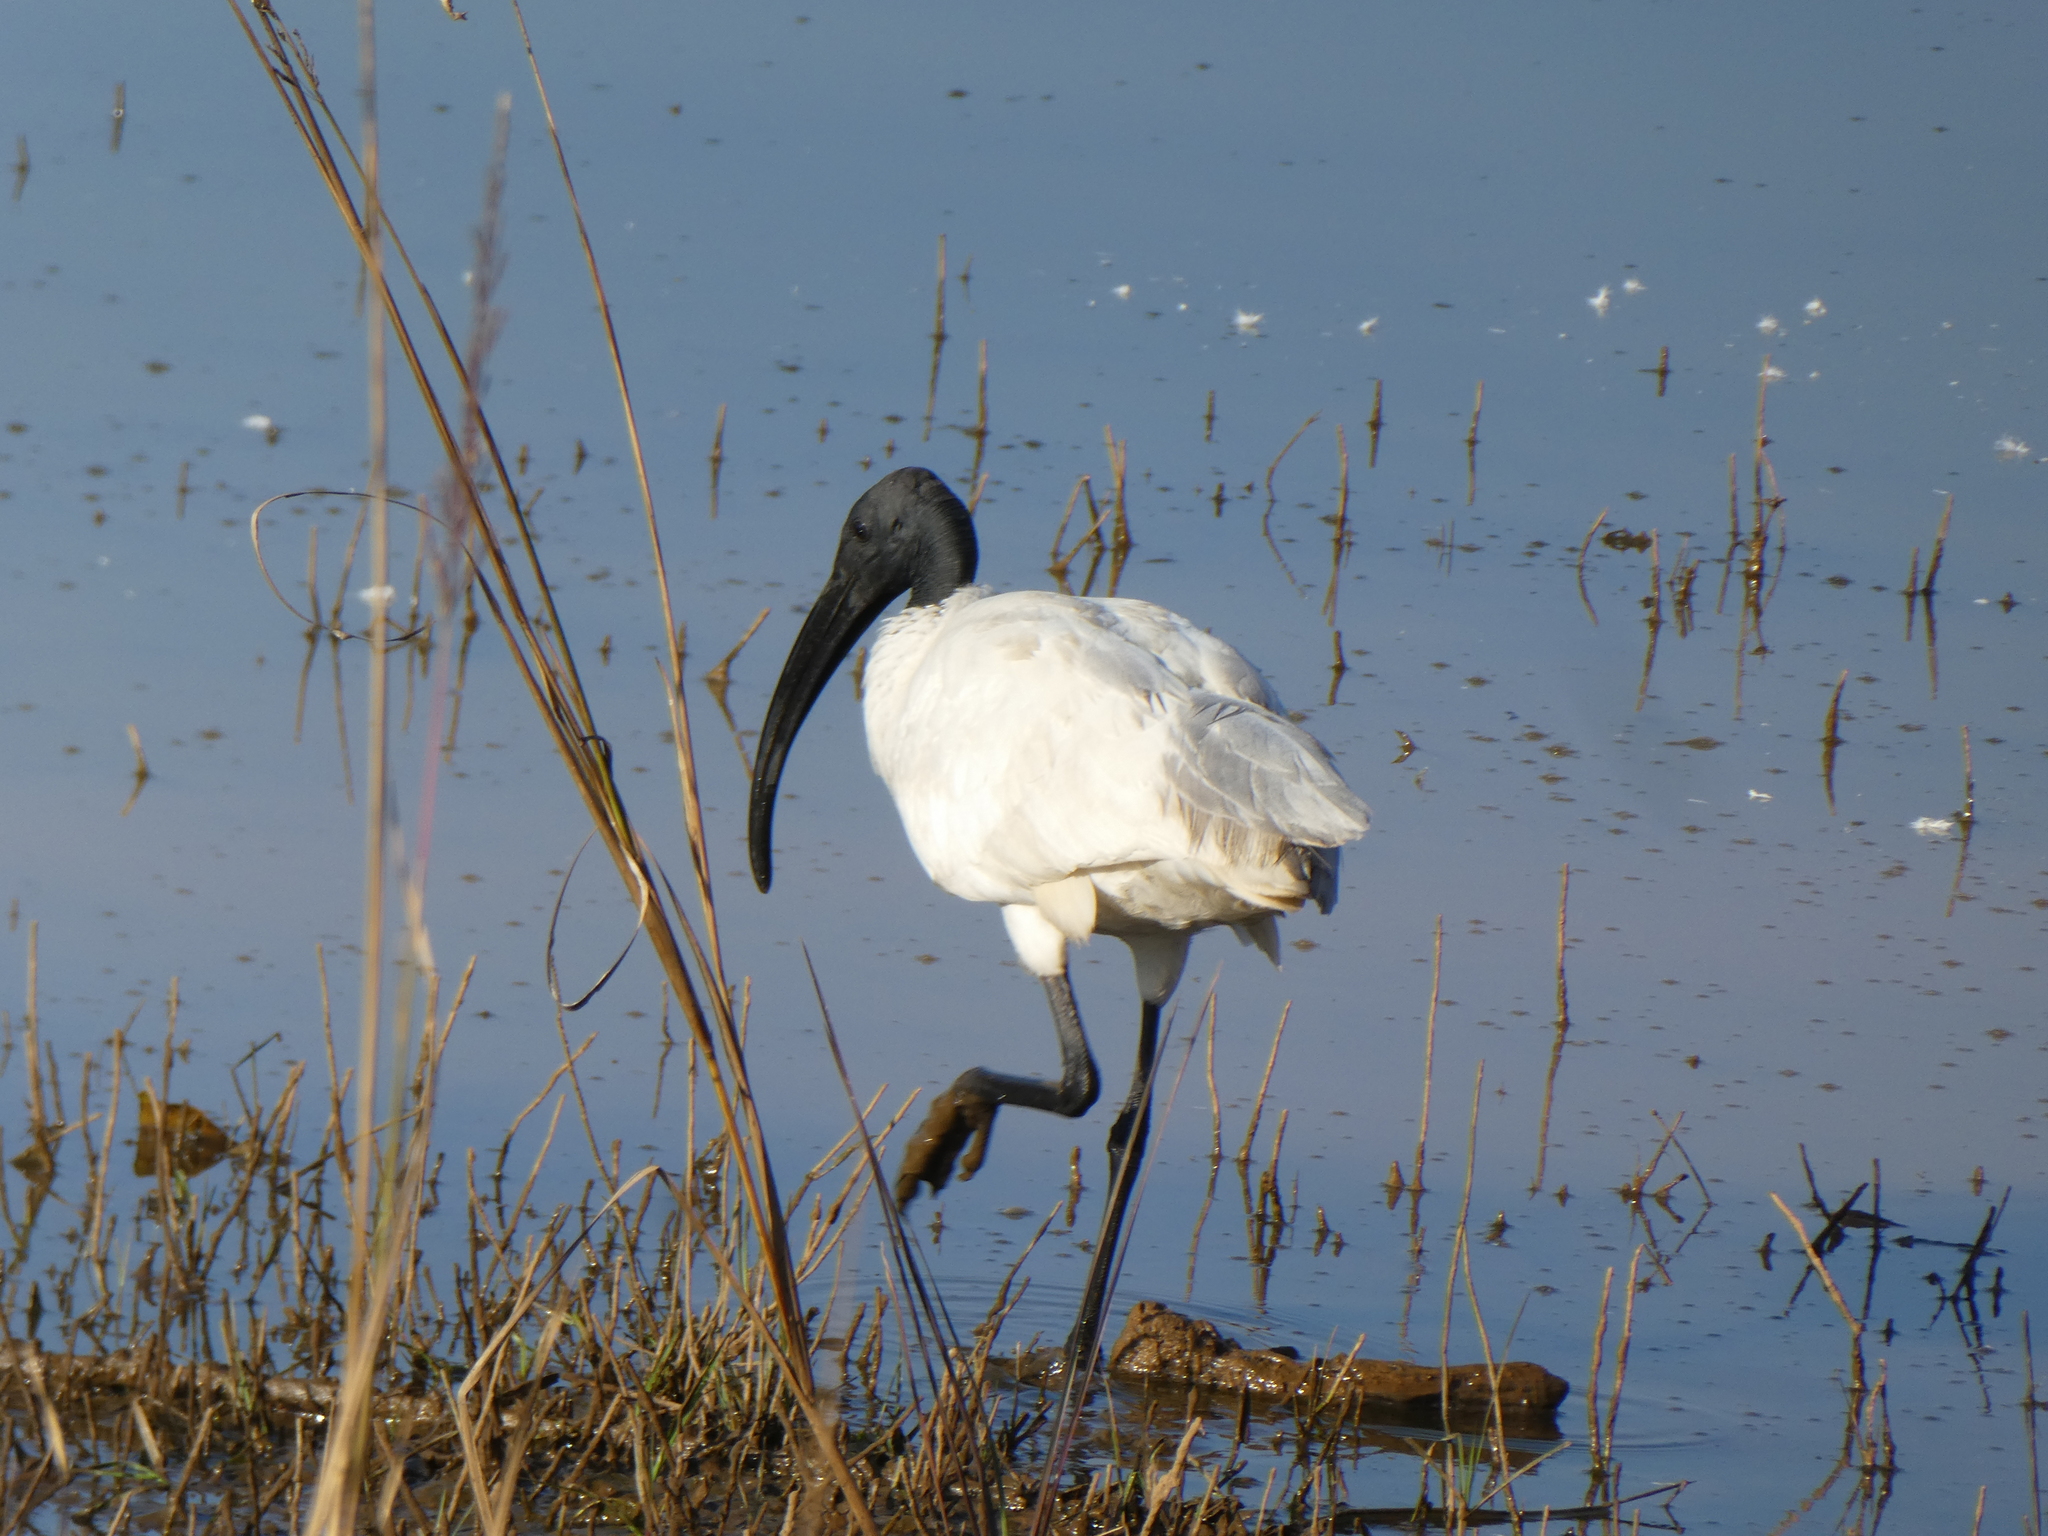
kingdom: Animalia
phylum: Chordata
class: Aves
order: Pelecaniformes
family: Threskiornithidae
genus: Threskiornis
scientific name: Threskiornis melanocephalus
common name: Black-headed ibis
